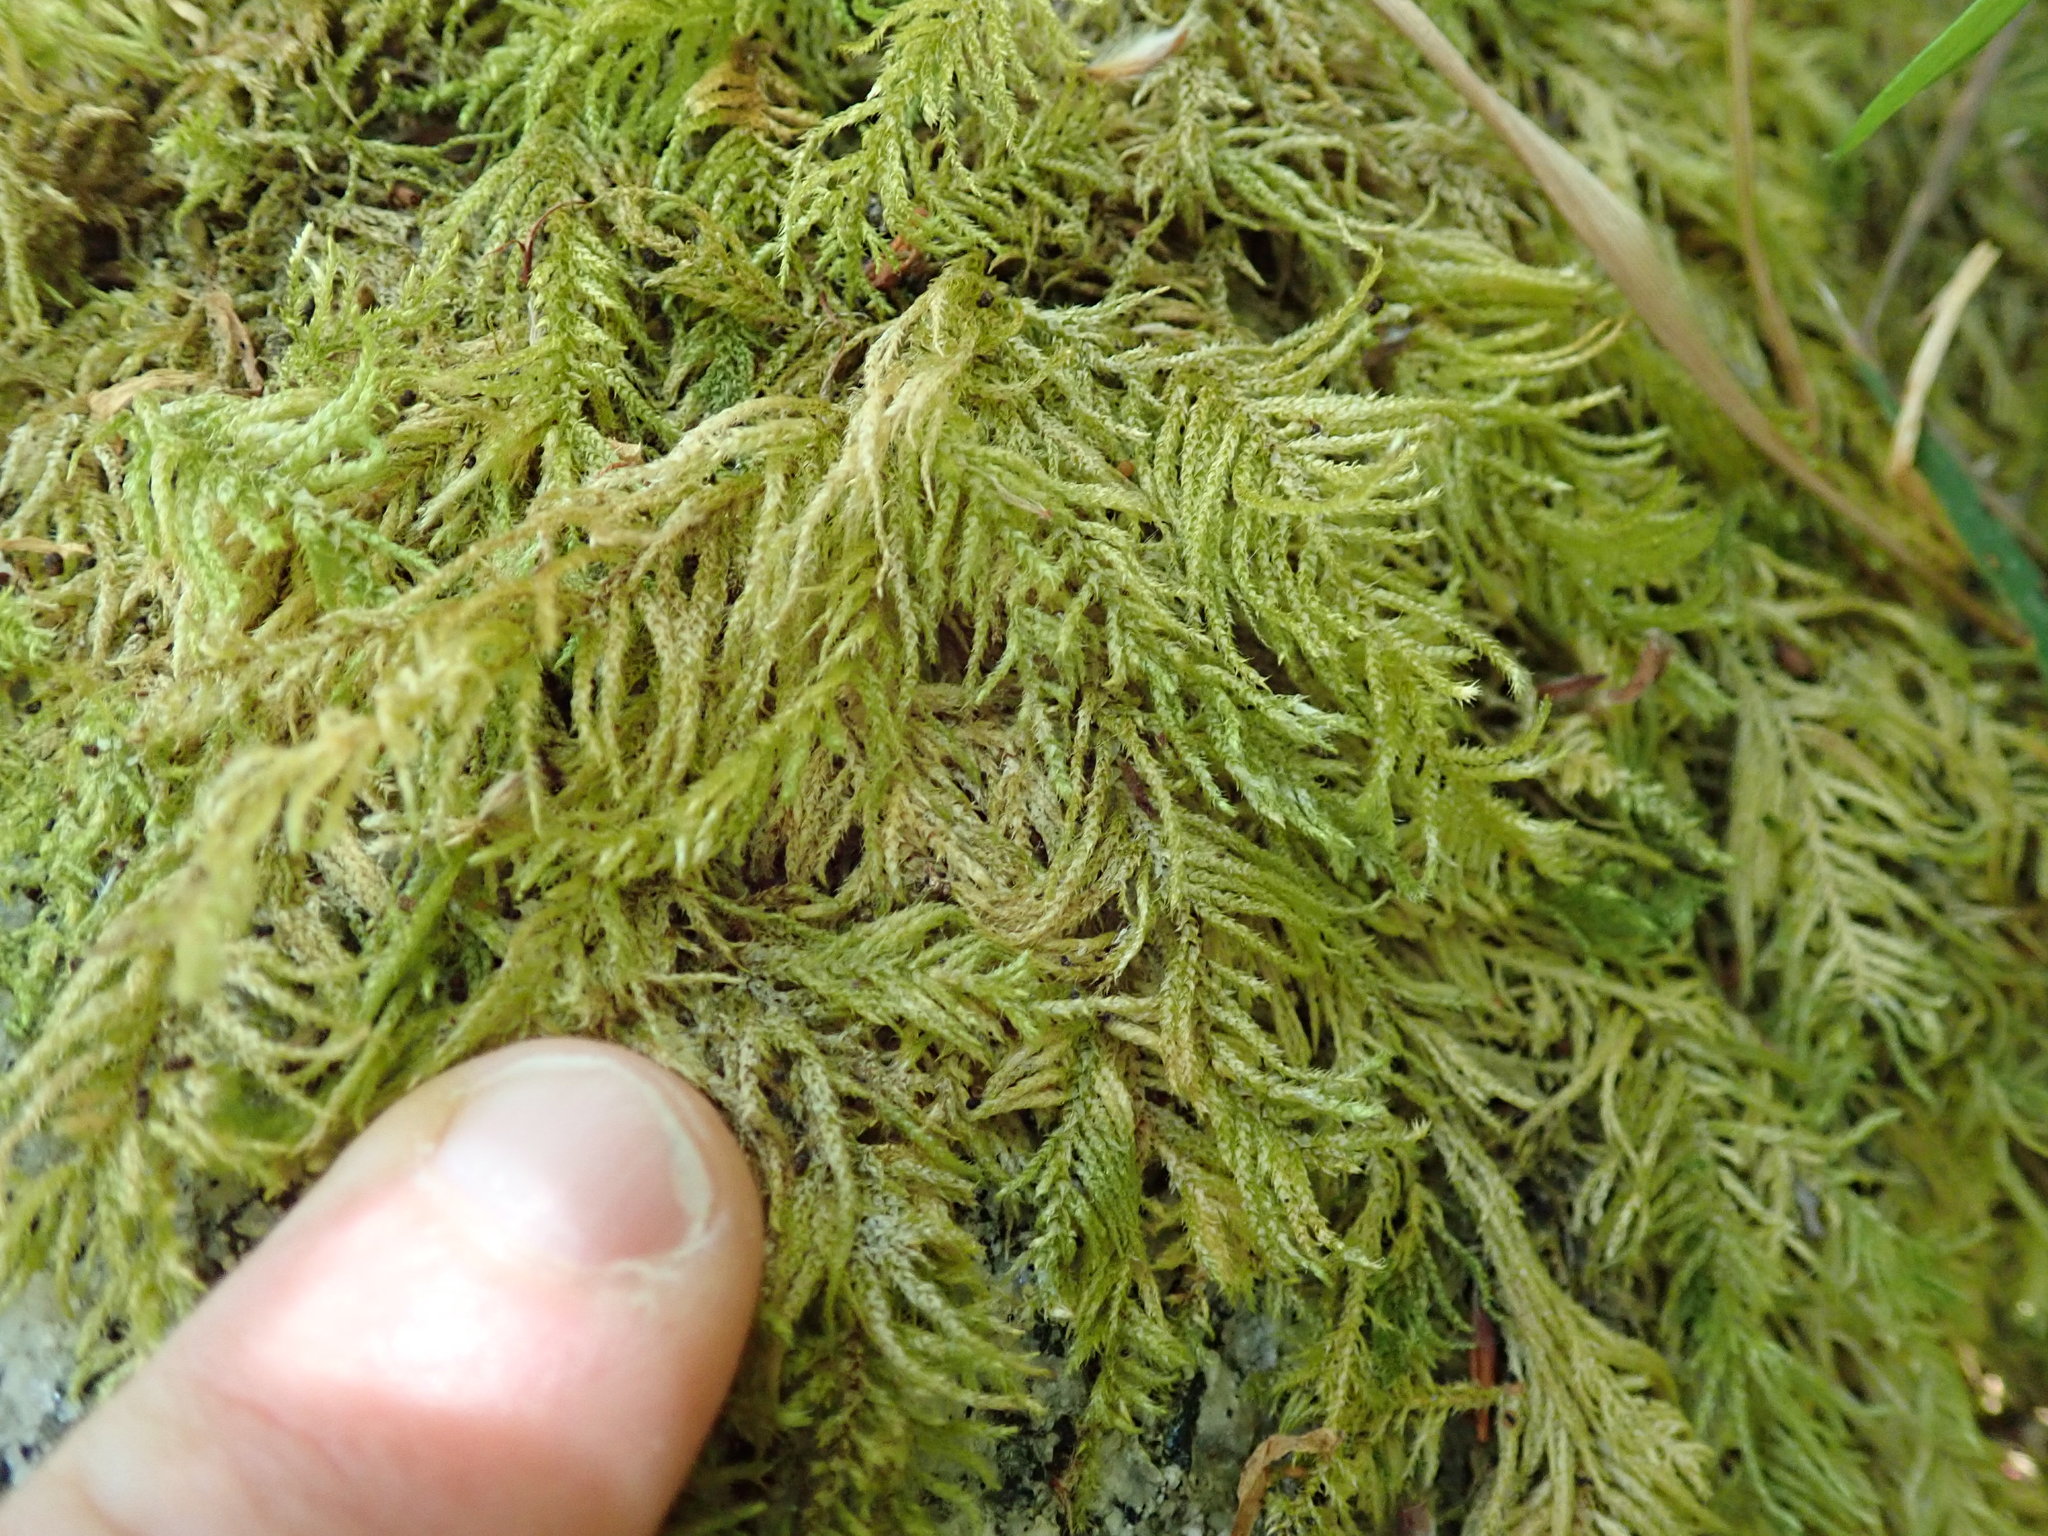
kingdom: Plantae
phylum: Bryophyta
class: Bryopsida
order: Hypnales
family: Brachytheciaceae
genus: Kindbergia
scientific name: Kindbergia oregana
